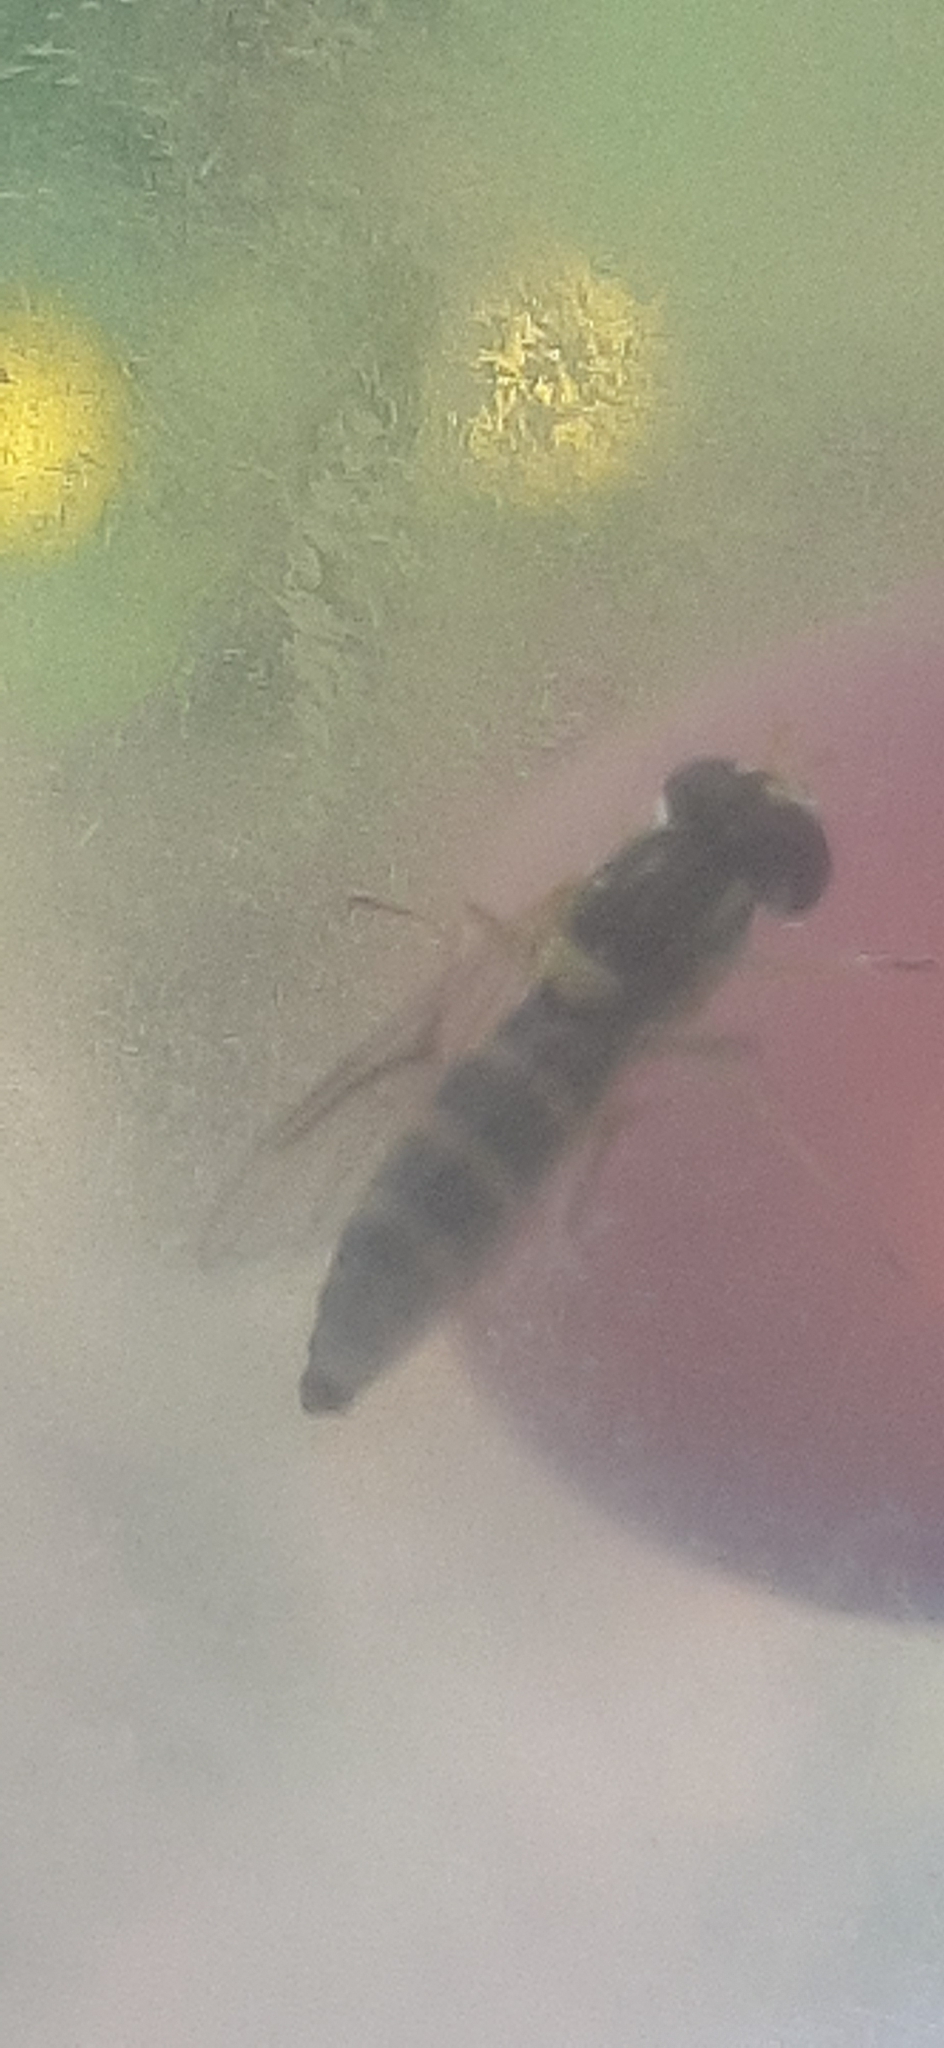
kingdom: Animalia
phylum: Arthropoda
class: Insecta
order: Diptera
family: Syrphidae
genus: Sphaerophoria
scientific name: Sphaerophoria
